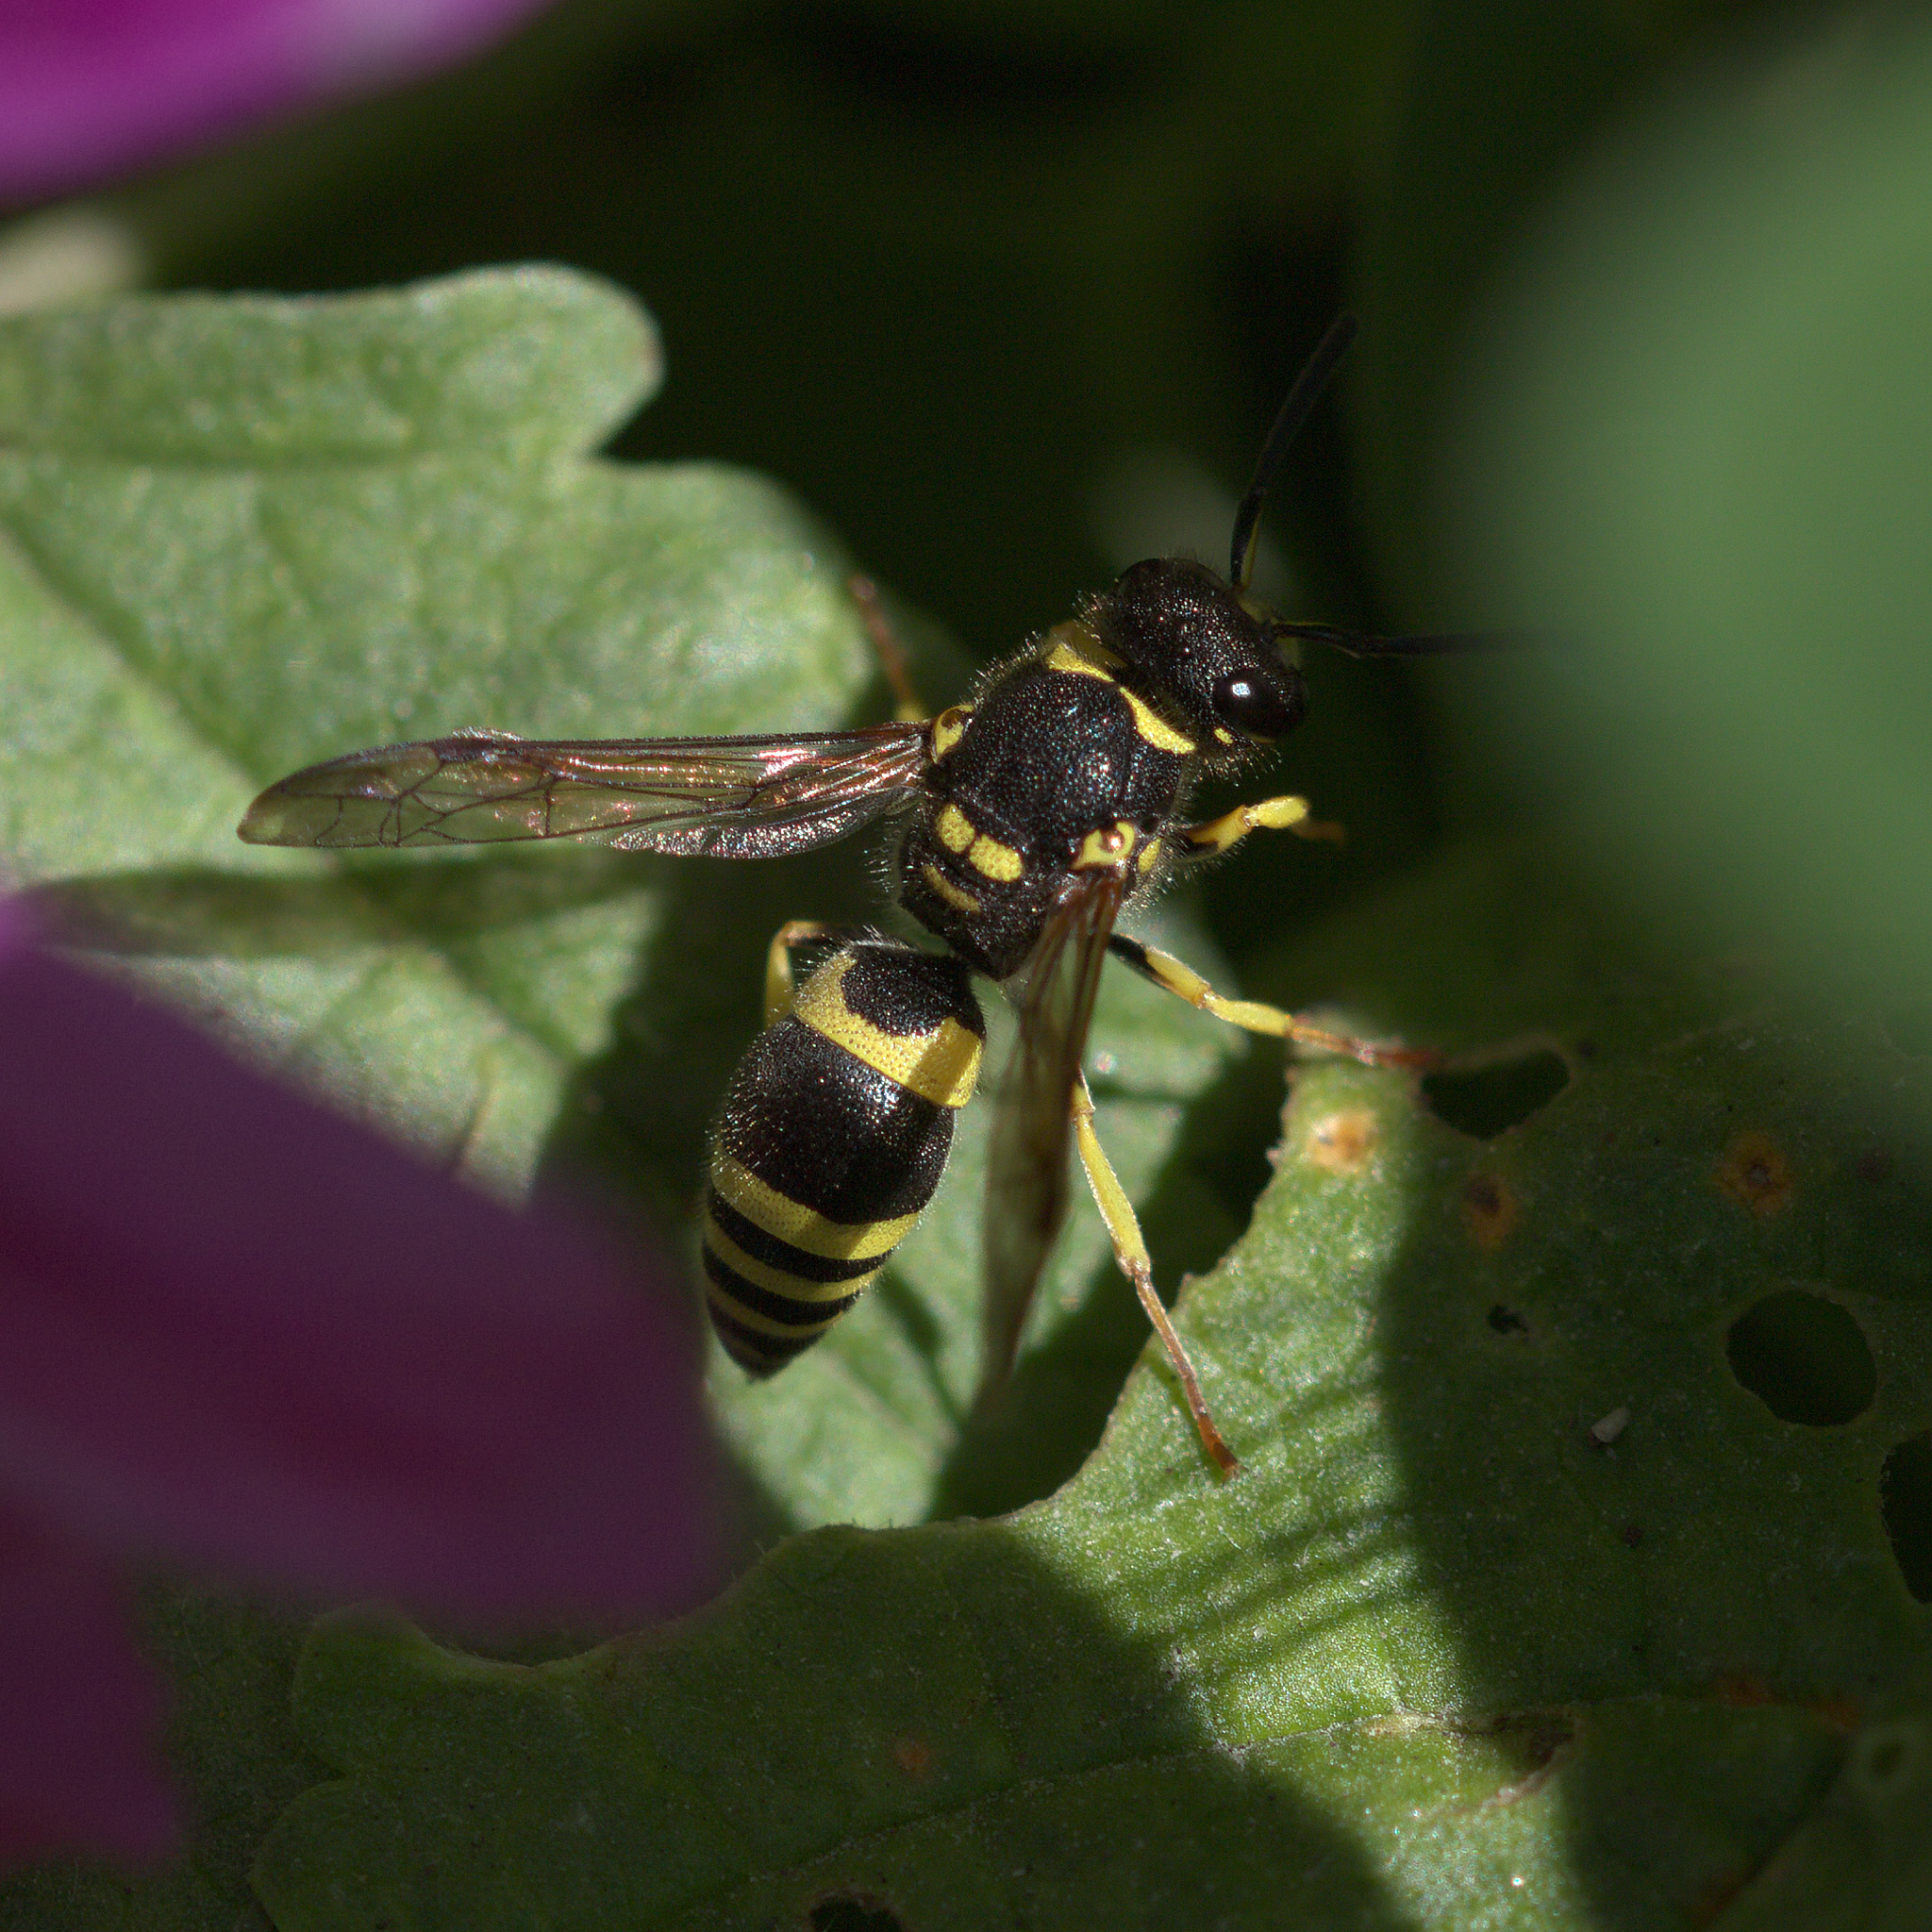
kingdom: Animalia
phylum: Arthropoda
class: Insecta
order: Hymenoptera
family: Vespidae
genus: Ancistrocerus
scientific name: Ancistrocerus gazella
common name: European tube wasp
